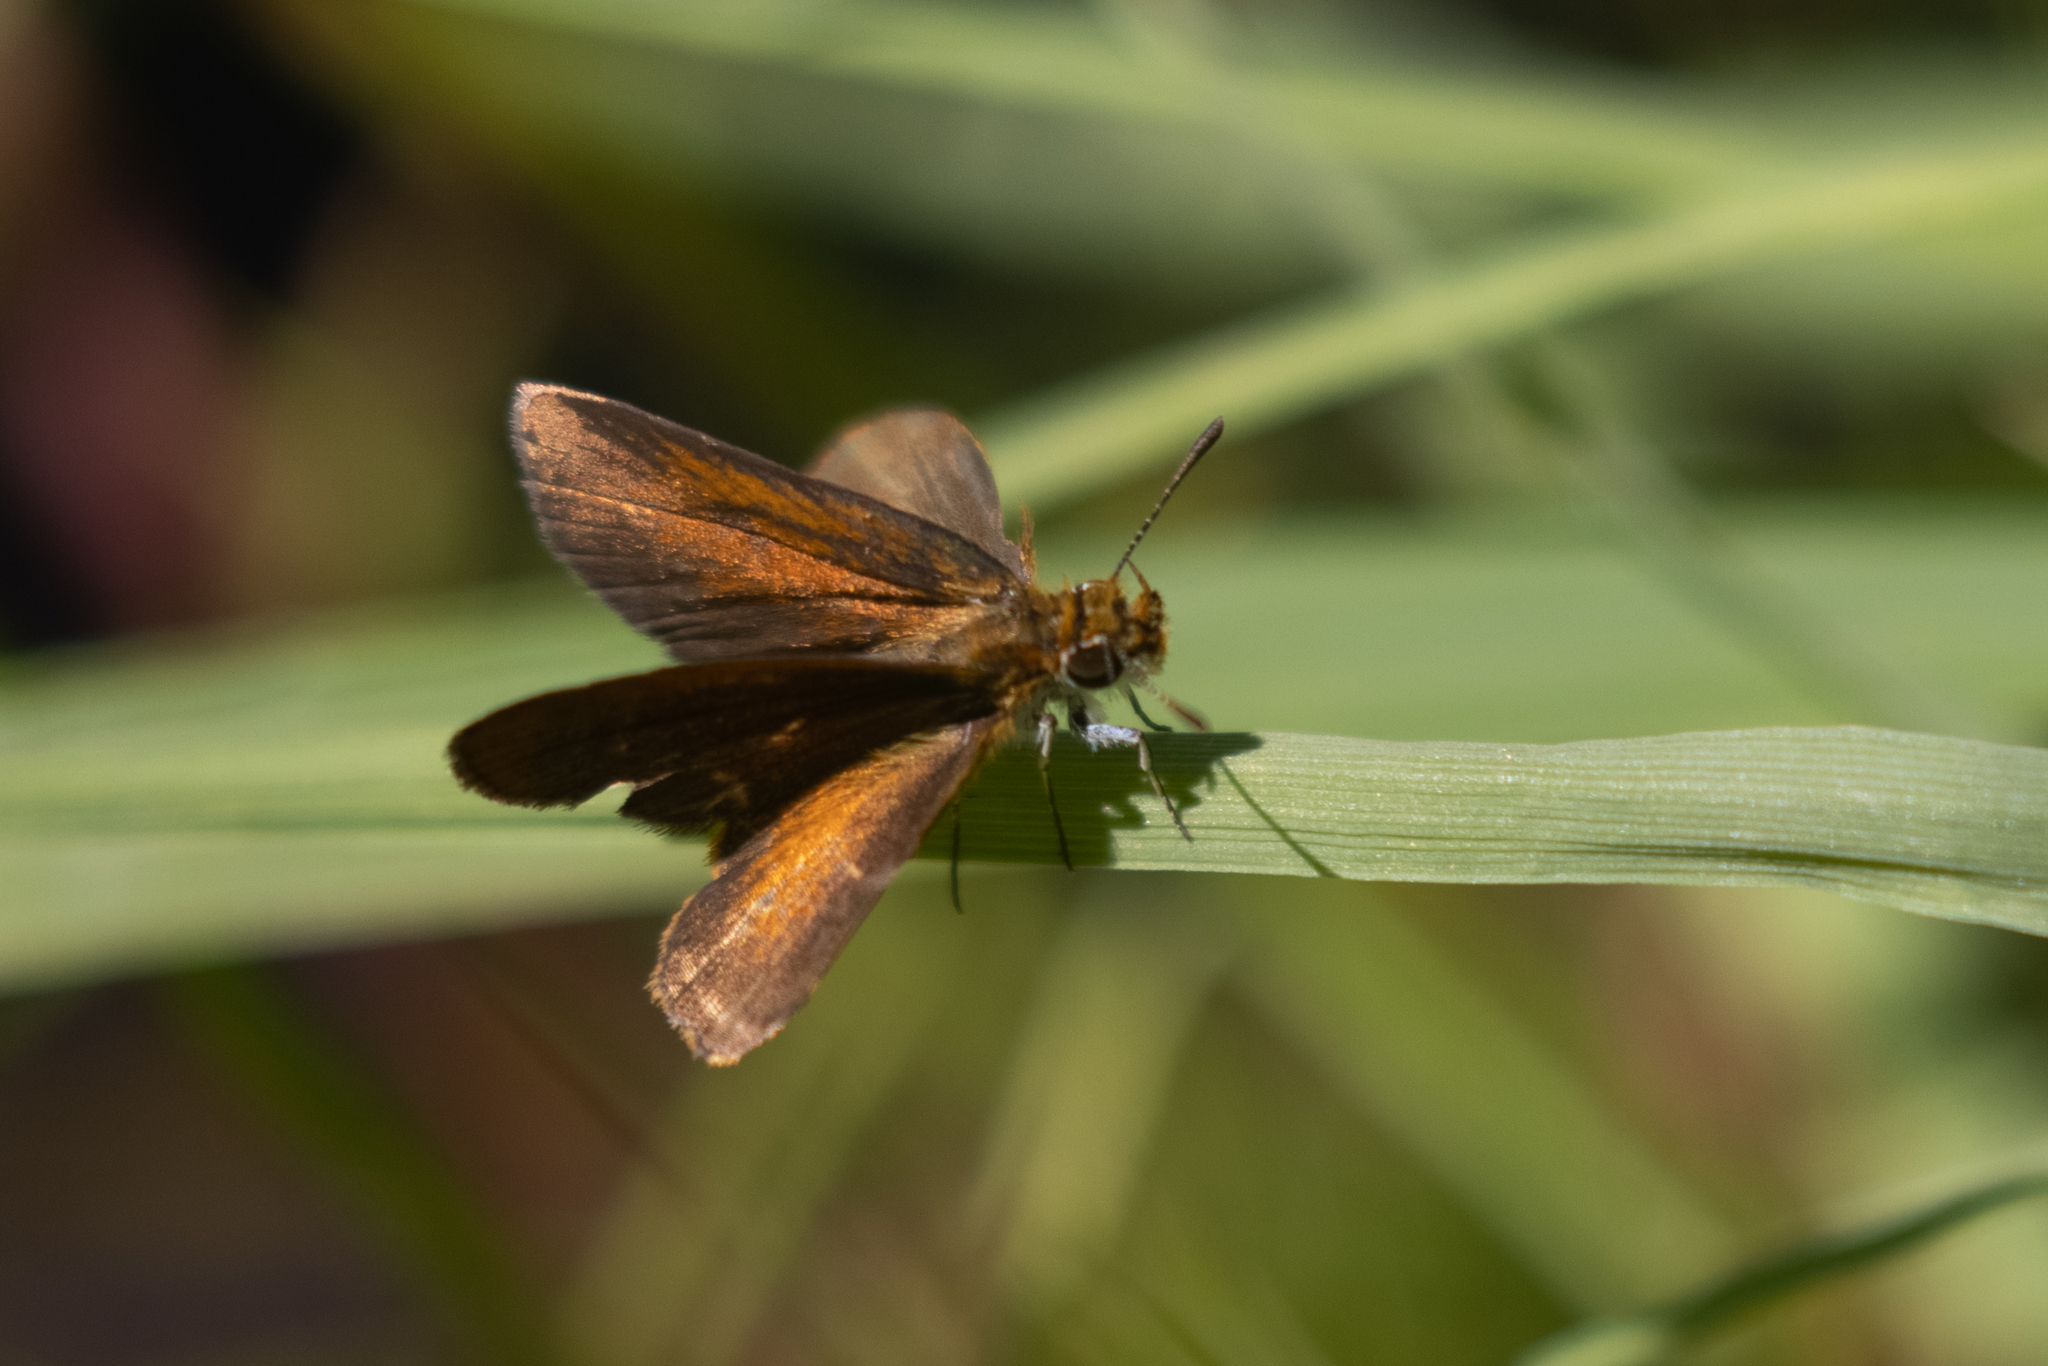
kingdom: Animalia
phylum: Arthropoda
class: Insecta
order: Lepidoptera
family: Hesperiidae
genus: Ancyloxypha
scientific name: Ancyloxypha numitor
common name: Least skipper
